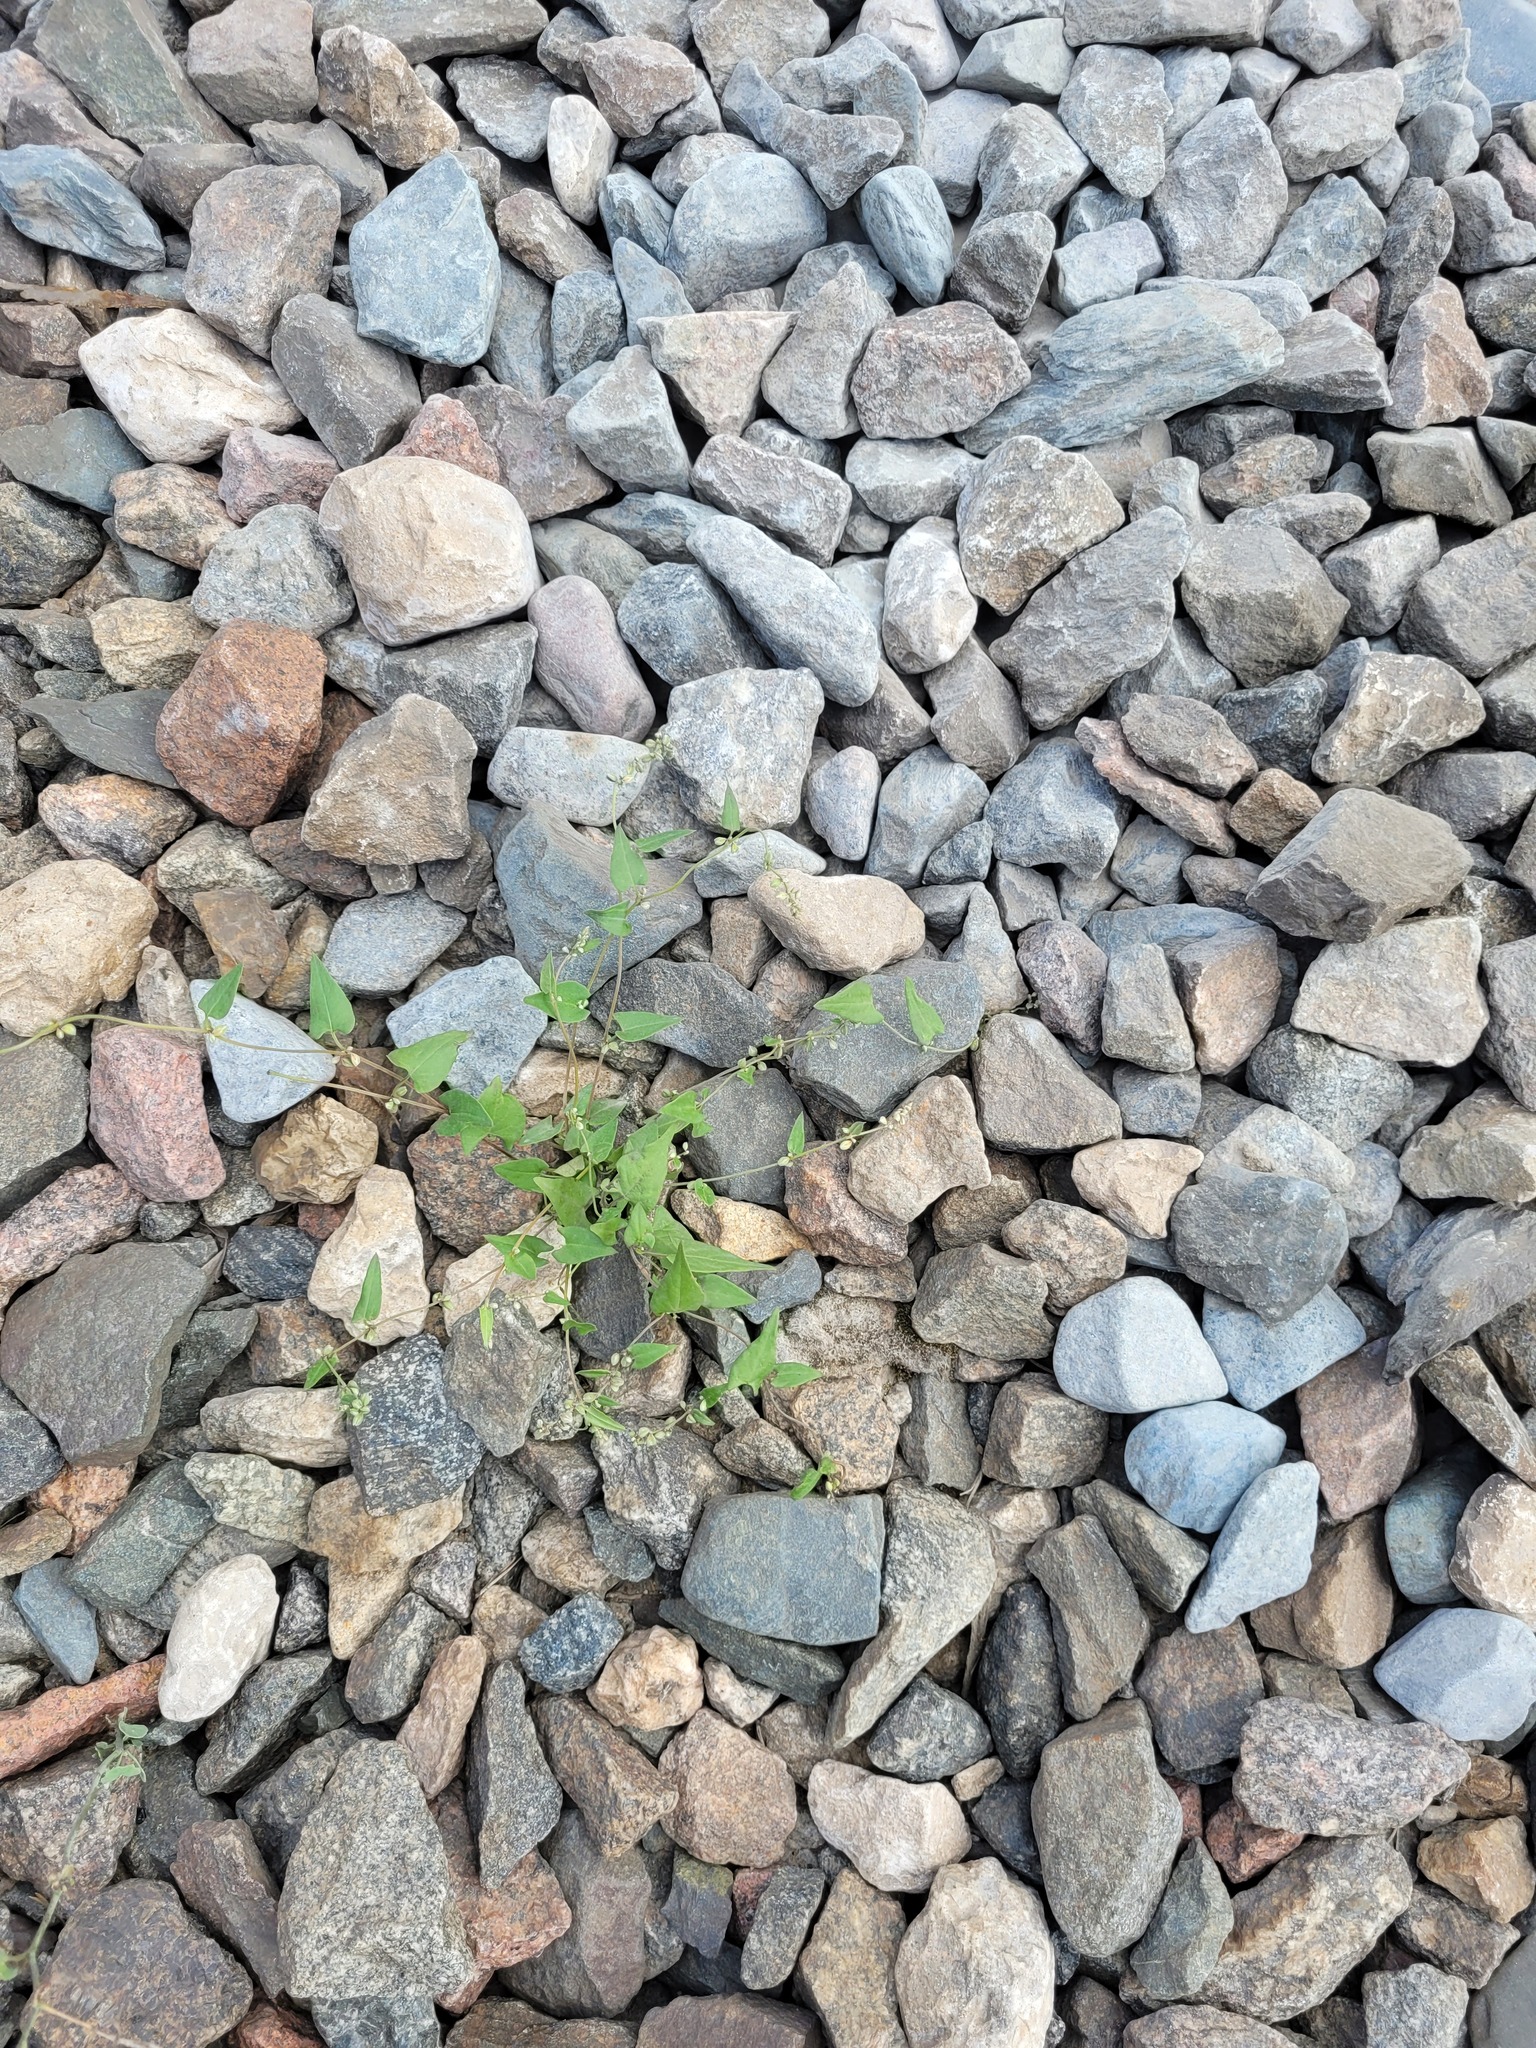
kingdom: Plantae
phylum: Tracheophyta
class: Magnoliopsida
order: Caryophyllales
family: Polygonaceae
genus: Fallopia
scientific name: Fallopia convolvulus
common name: Black bindweed
